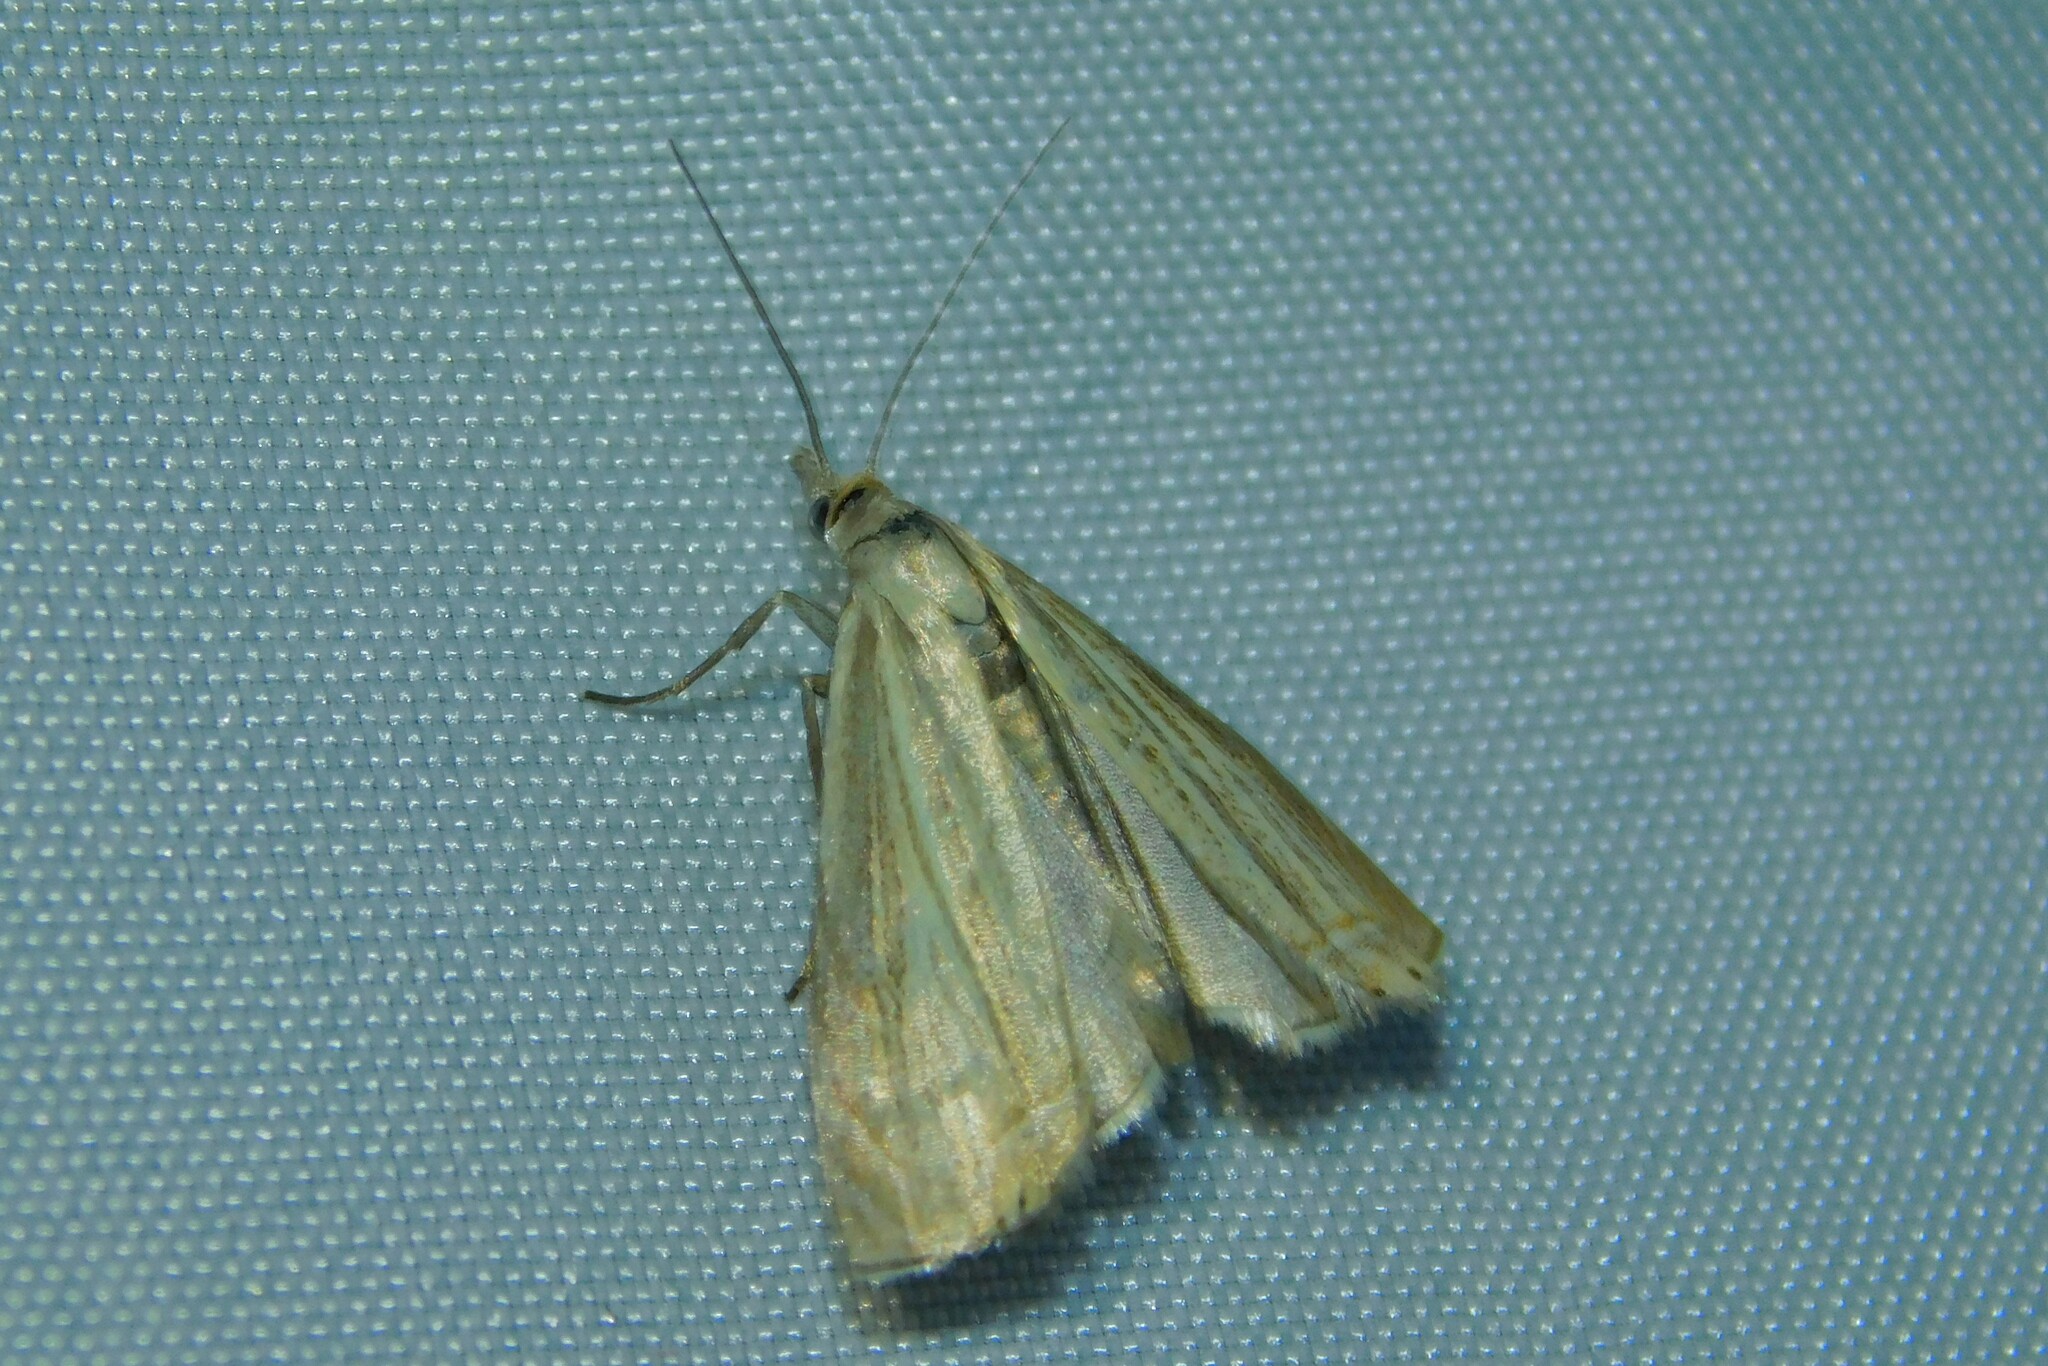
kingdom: Animalia
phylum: Arthropoda
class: Insecta
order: Lepidoptera
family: Crambidae
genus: Chrysoteuchia
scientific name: Chrysoteuchia culmella
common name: Garden grass-veneer
